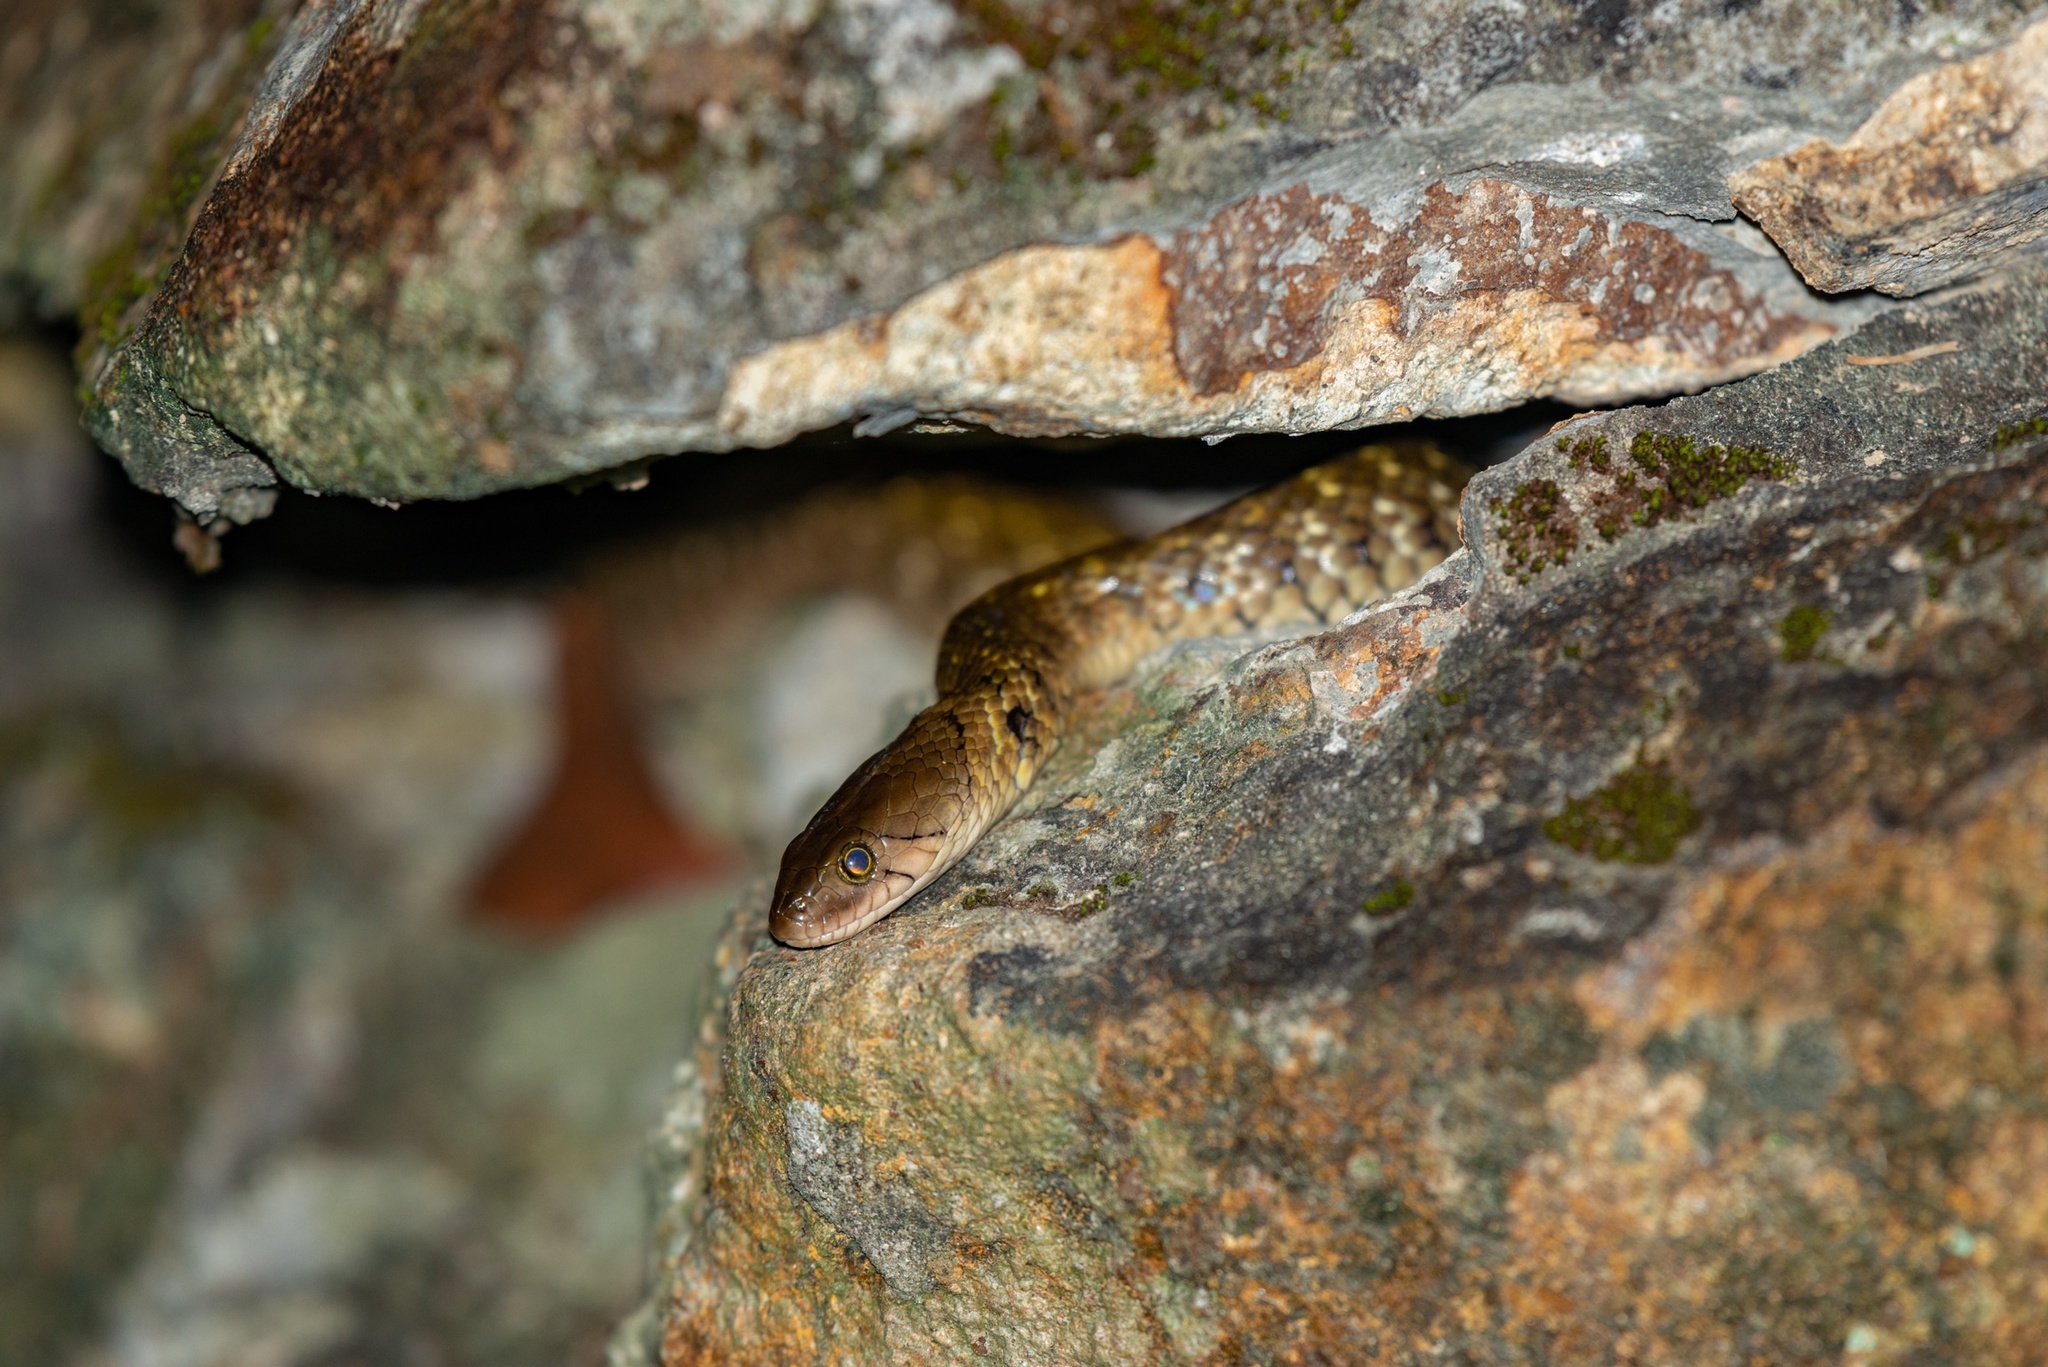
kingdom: Animalia
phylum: Chordata
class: Squamata
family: Colubridae
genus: Fowlea
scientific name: Fowlea flavipunctatus
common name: Yellow-spotted keelback
